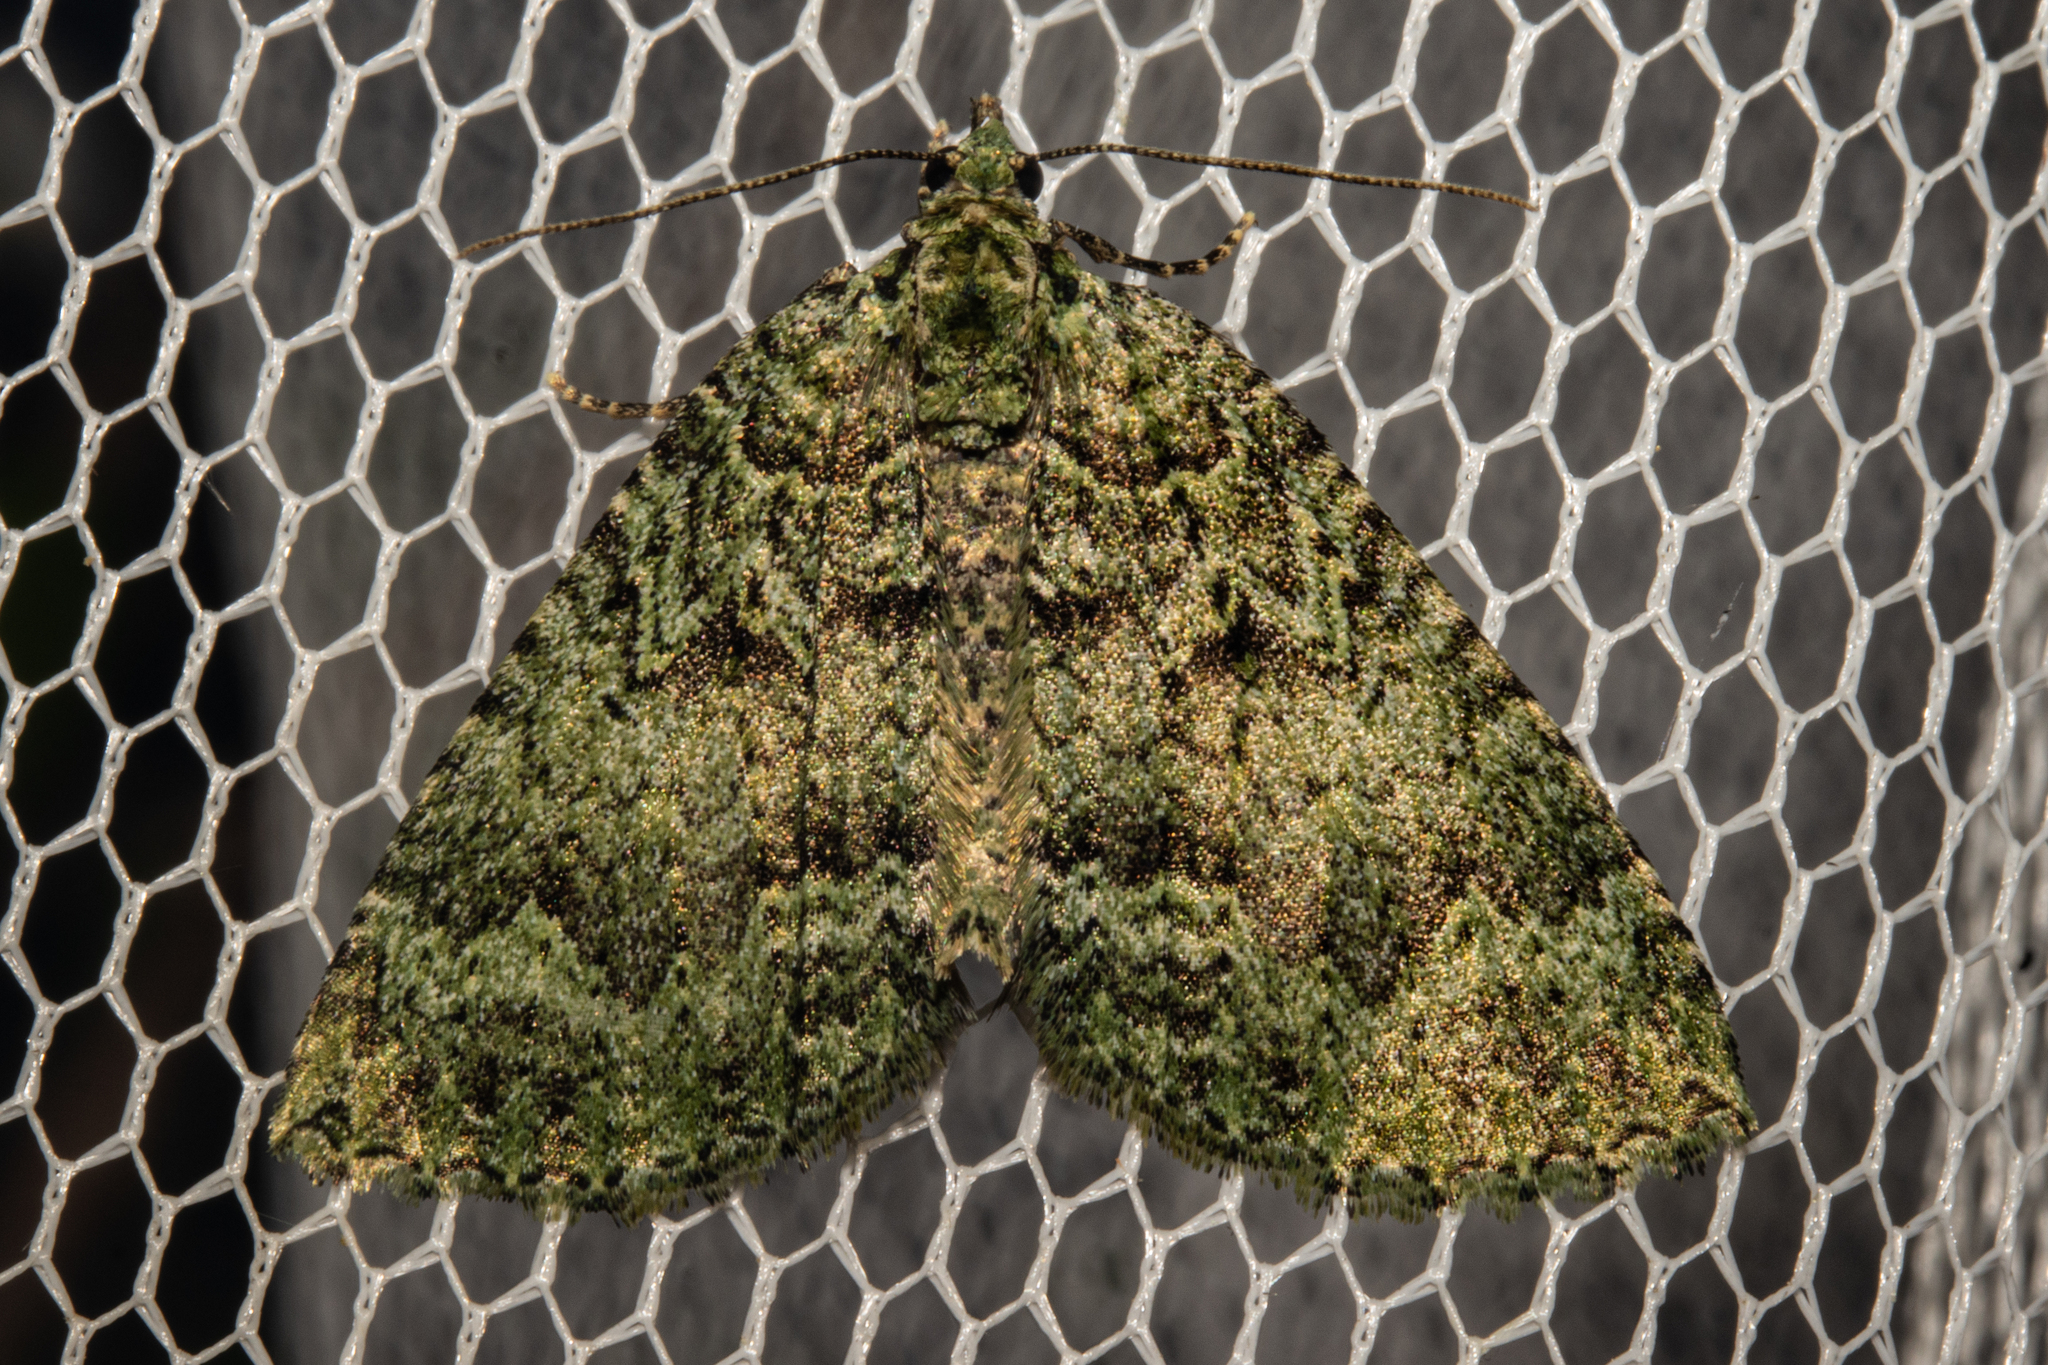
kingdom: Animalia
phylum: Arthropoda
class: Insecta
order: Lepidoptera
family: Geometridae
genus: Austrocidaria
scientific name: Austrocidaria callichlora
